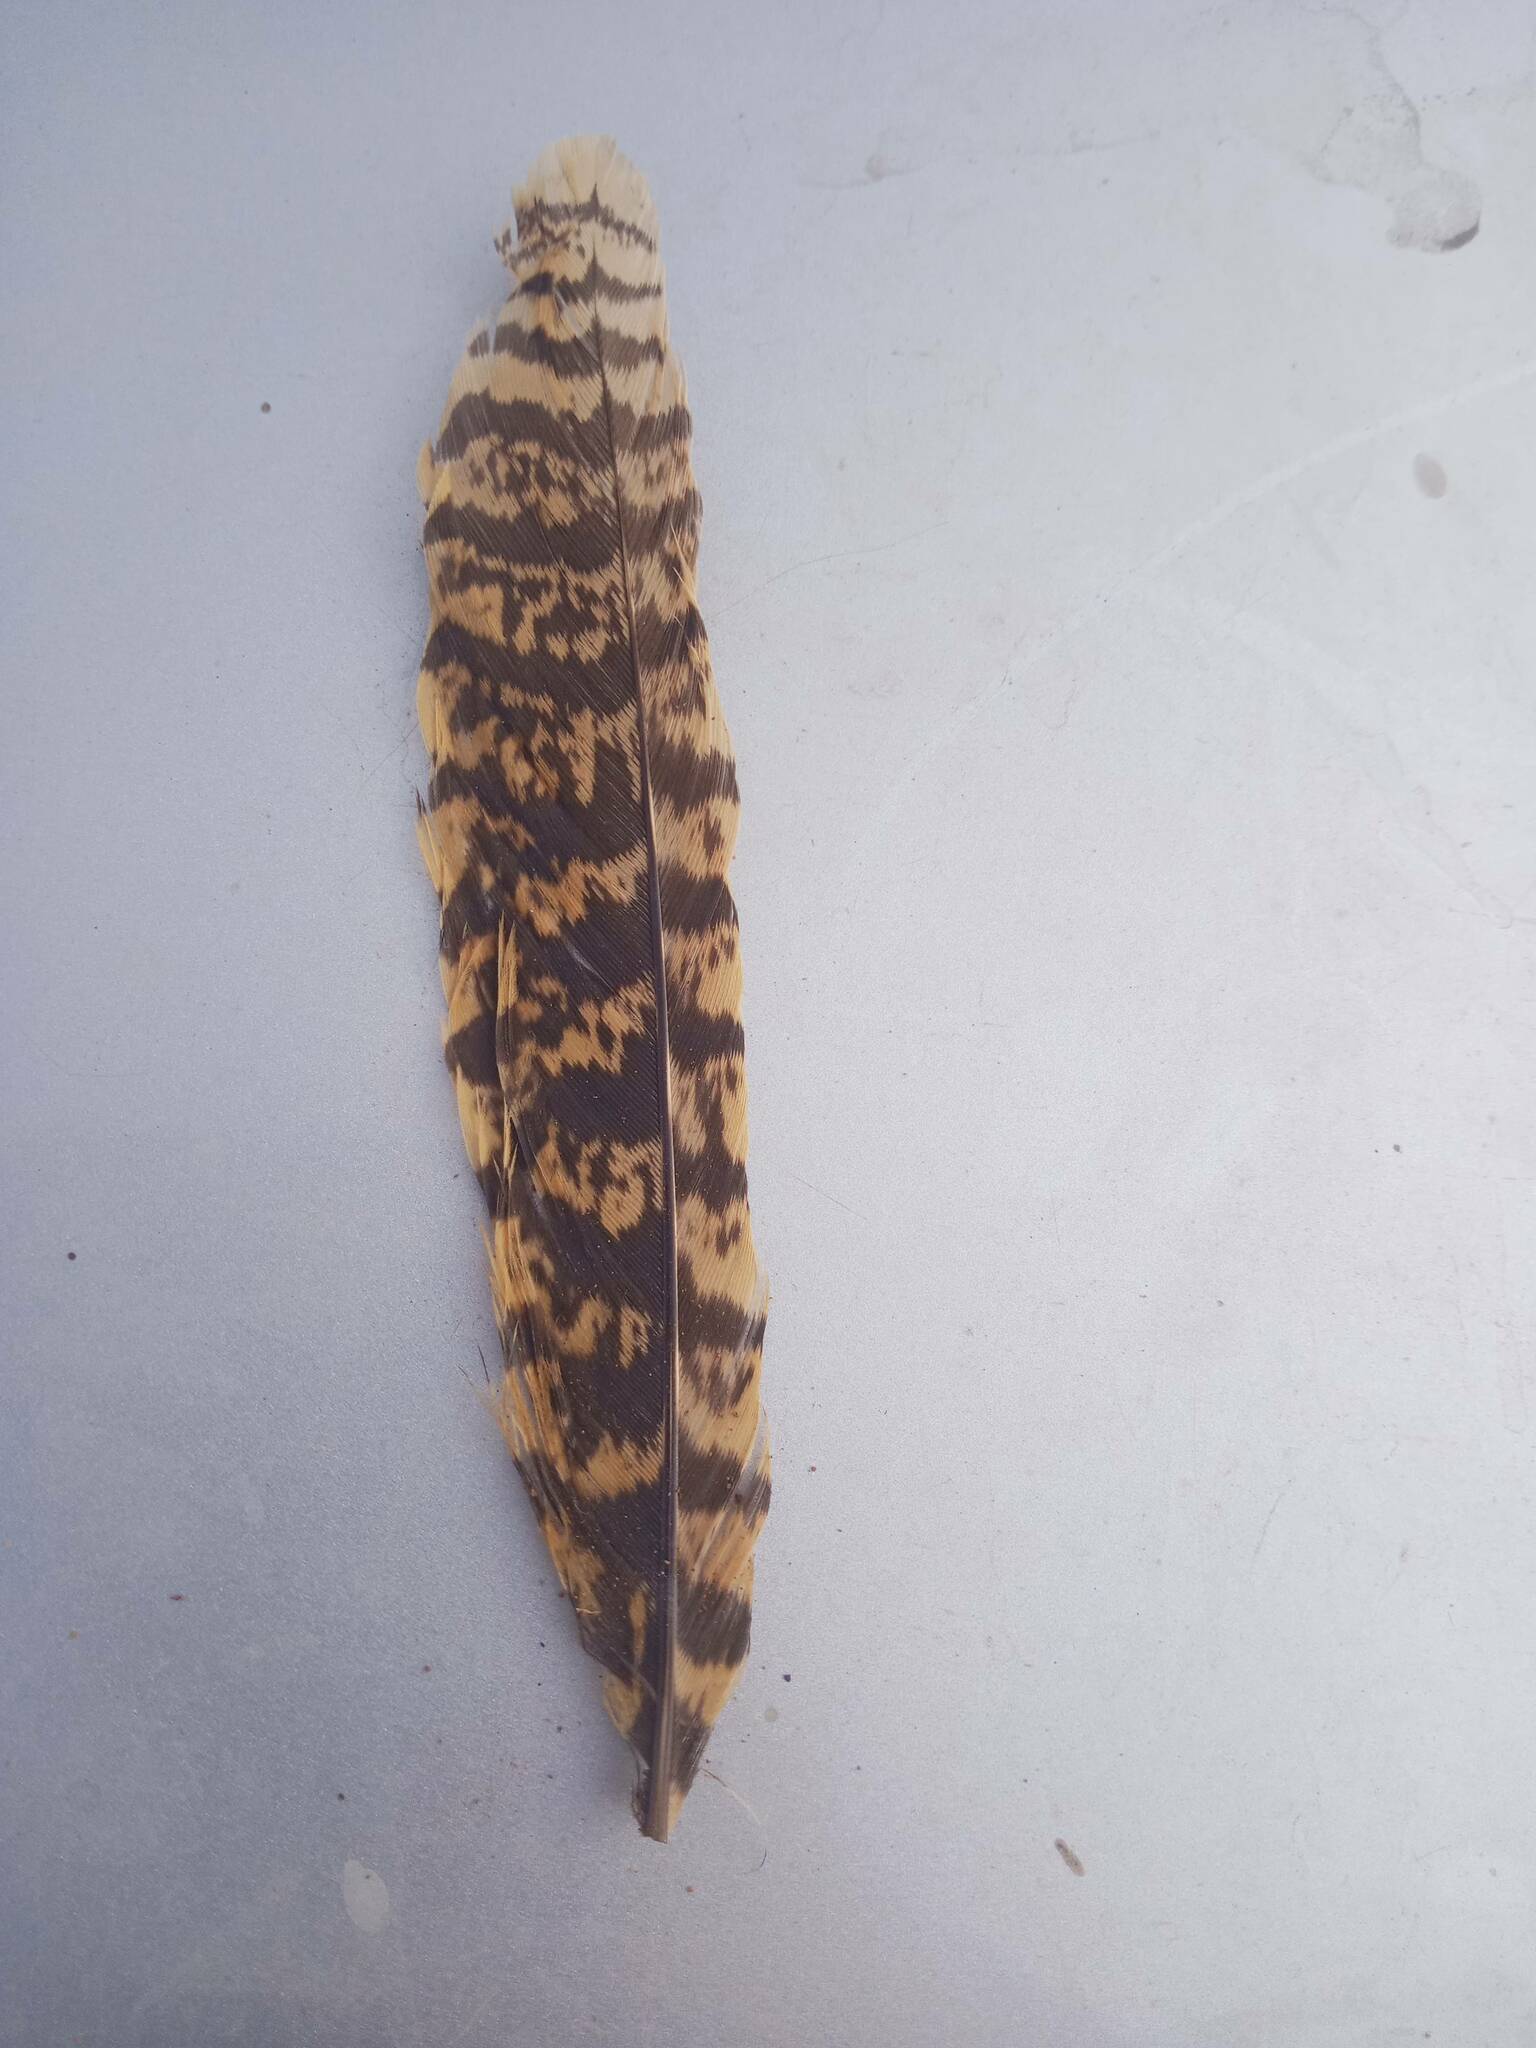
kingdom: Animalia
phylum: Chordata
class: Aves
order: Caprimulgiformes
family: Caprimulgidae
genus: Caprimulgus
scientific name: Caprimulgus europaeus
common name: European nightjar
